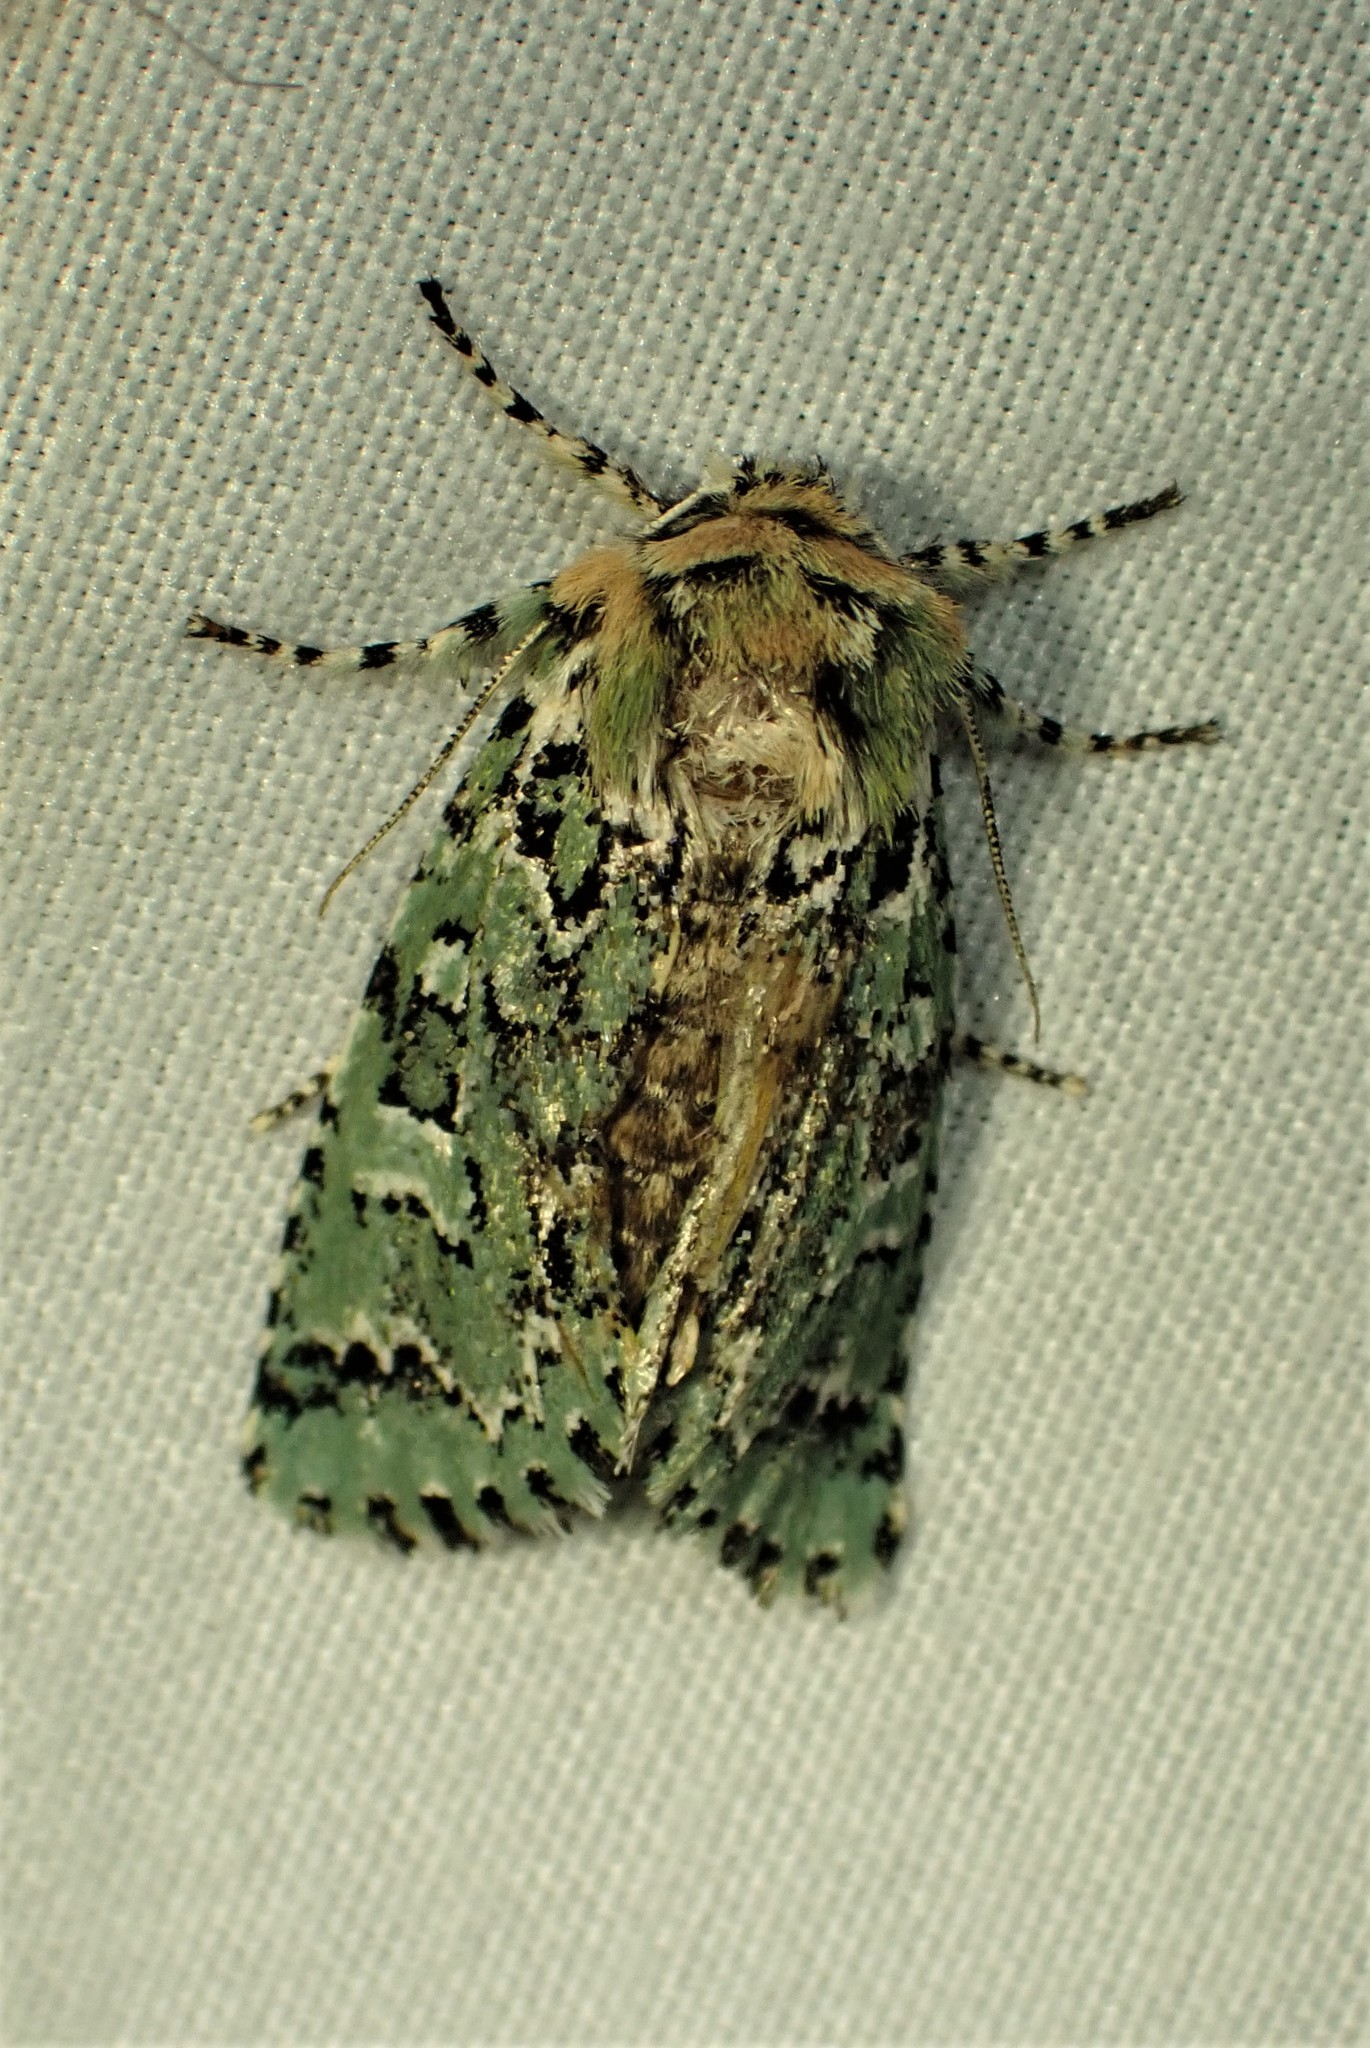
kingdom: Animalia
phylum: Arthropoda
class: Insecta
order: Lepidoptera
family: Noctuidae
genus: Feralia
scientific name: Feralia jocosa
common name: Joker
